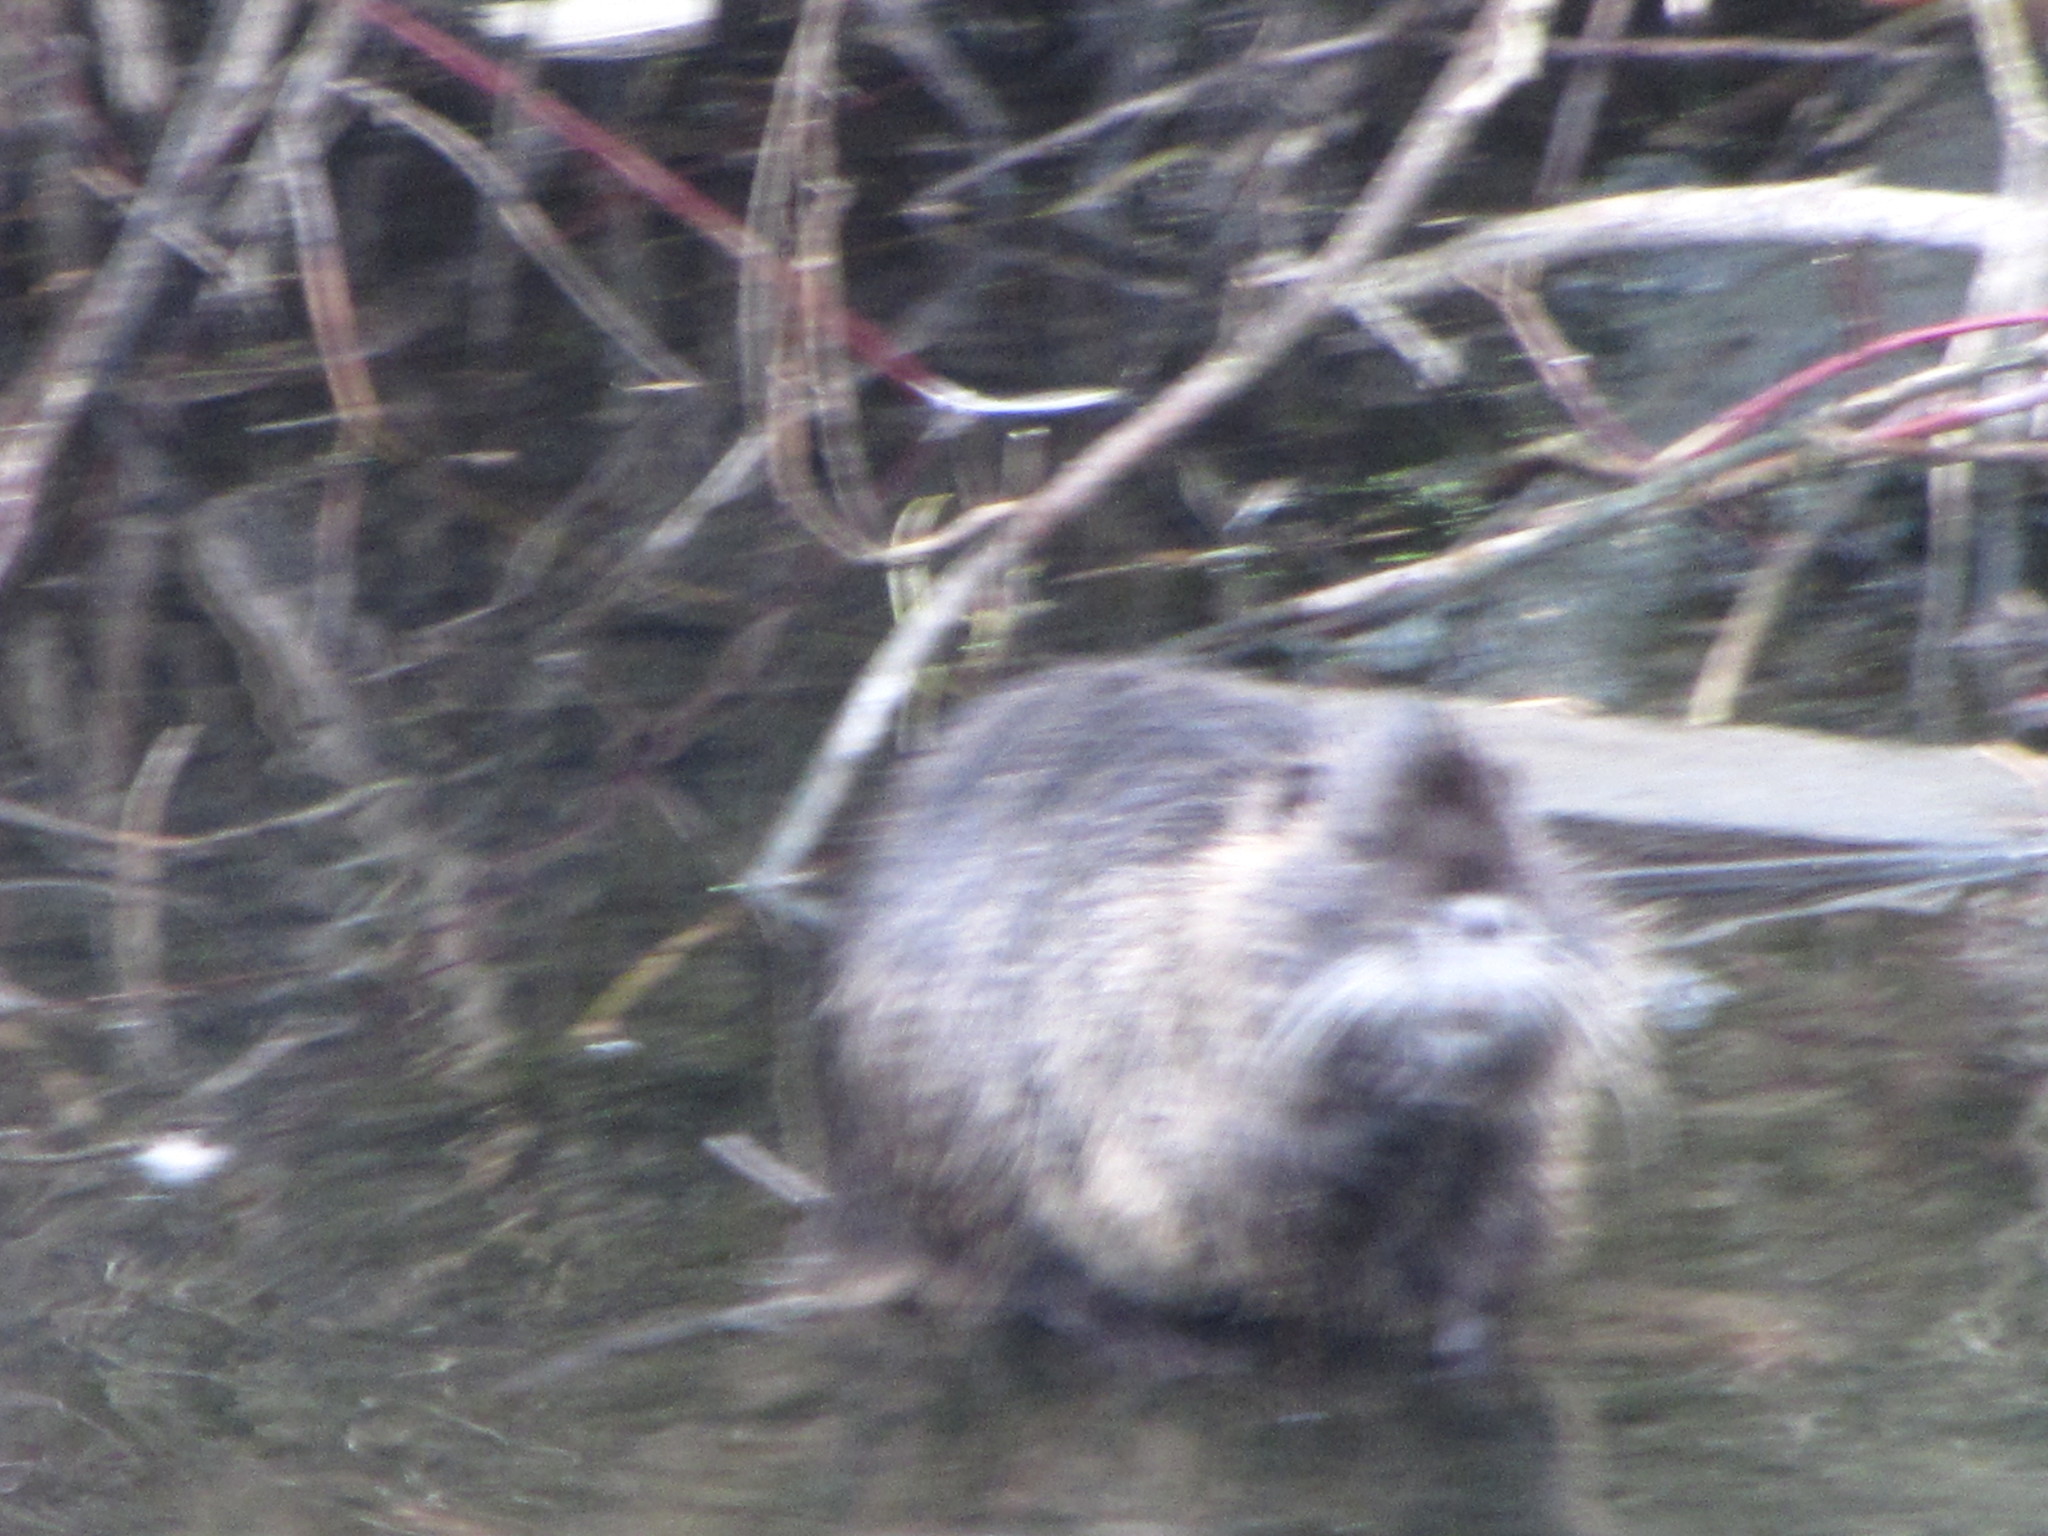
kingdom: Animalia
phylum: Chordata
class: Mammalia
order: Rodentia
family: Myocastoridae
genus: Myocastor
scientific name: Myocastor coypus
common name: Coypu
